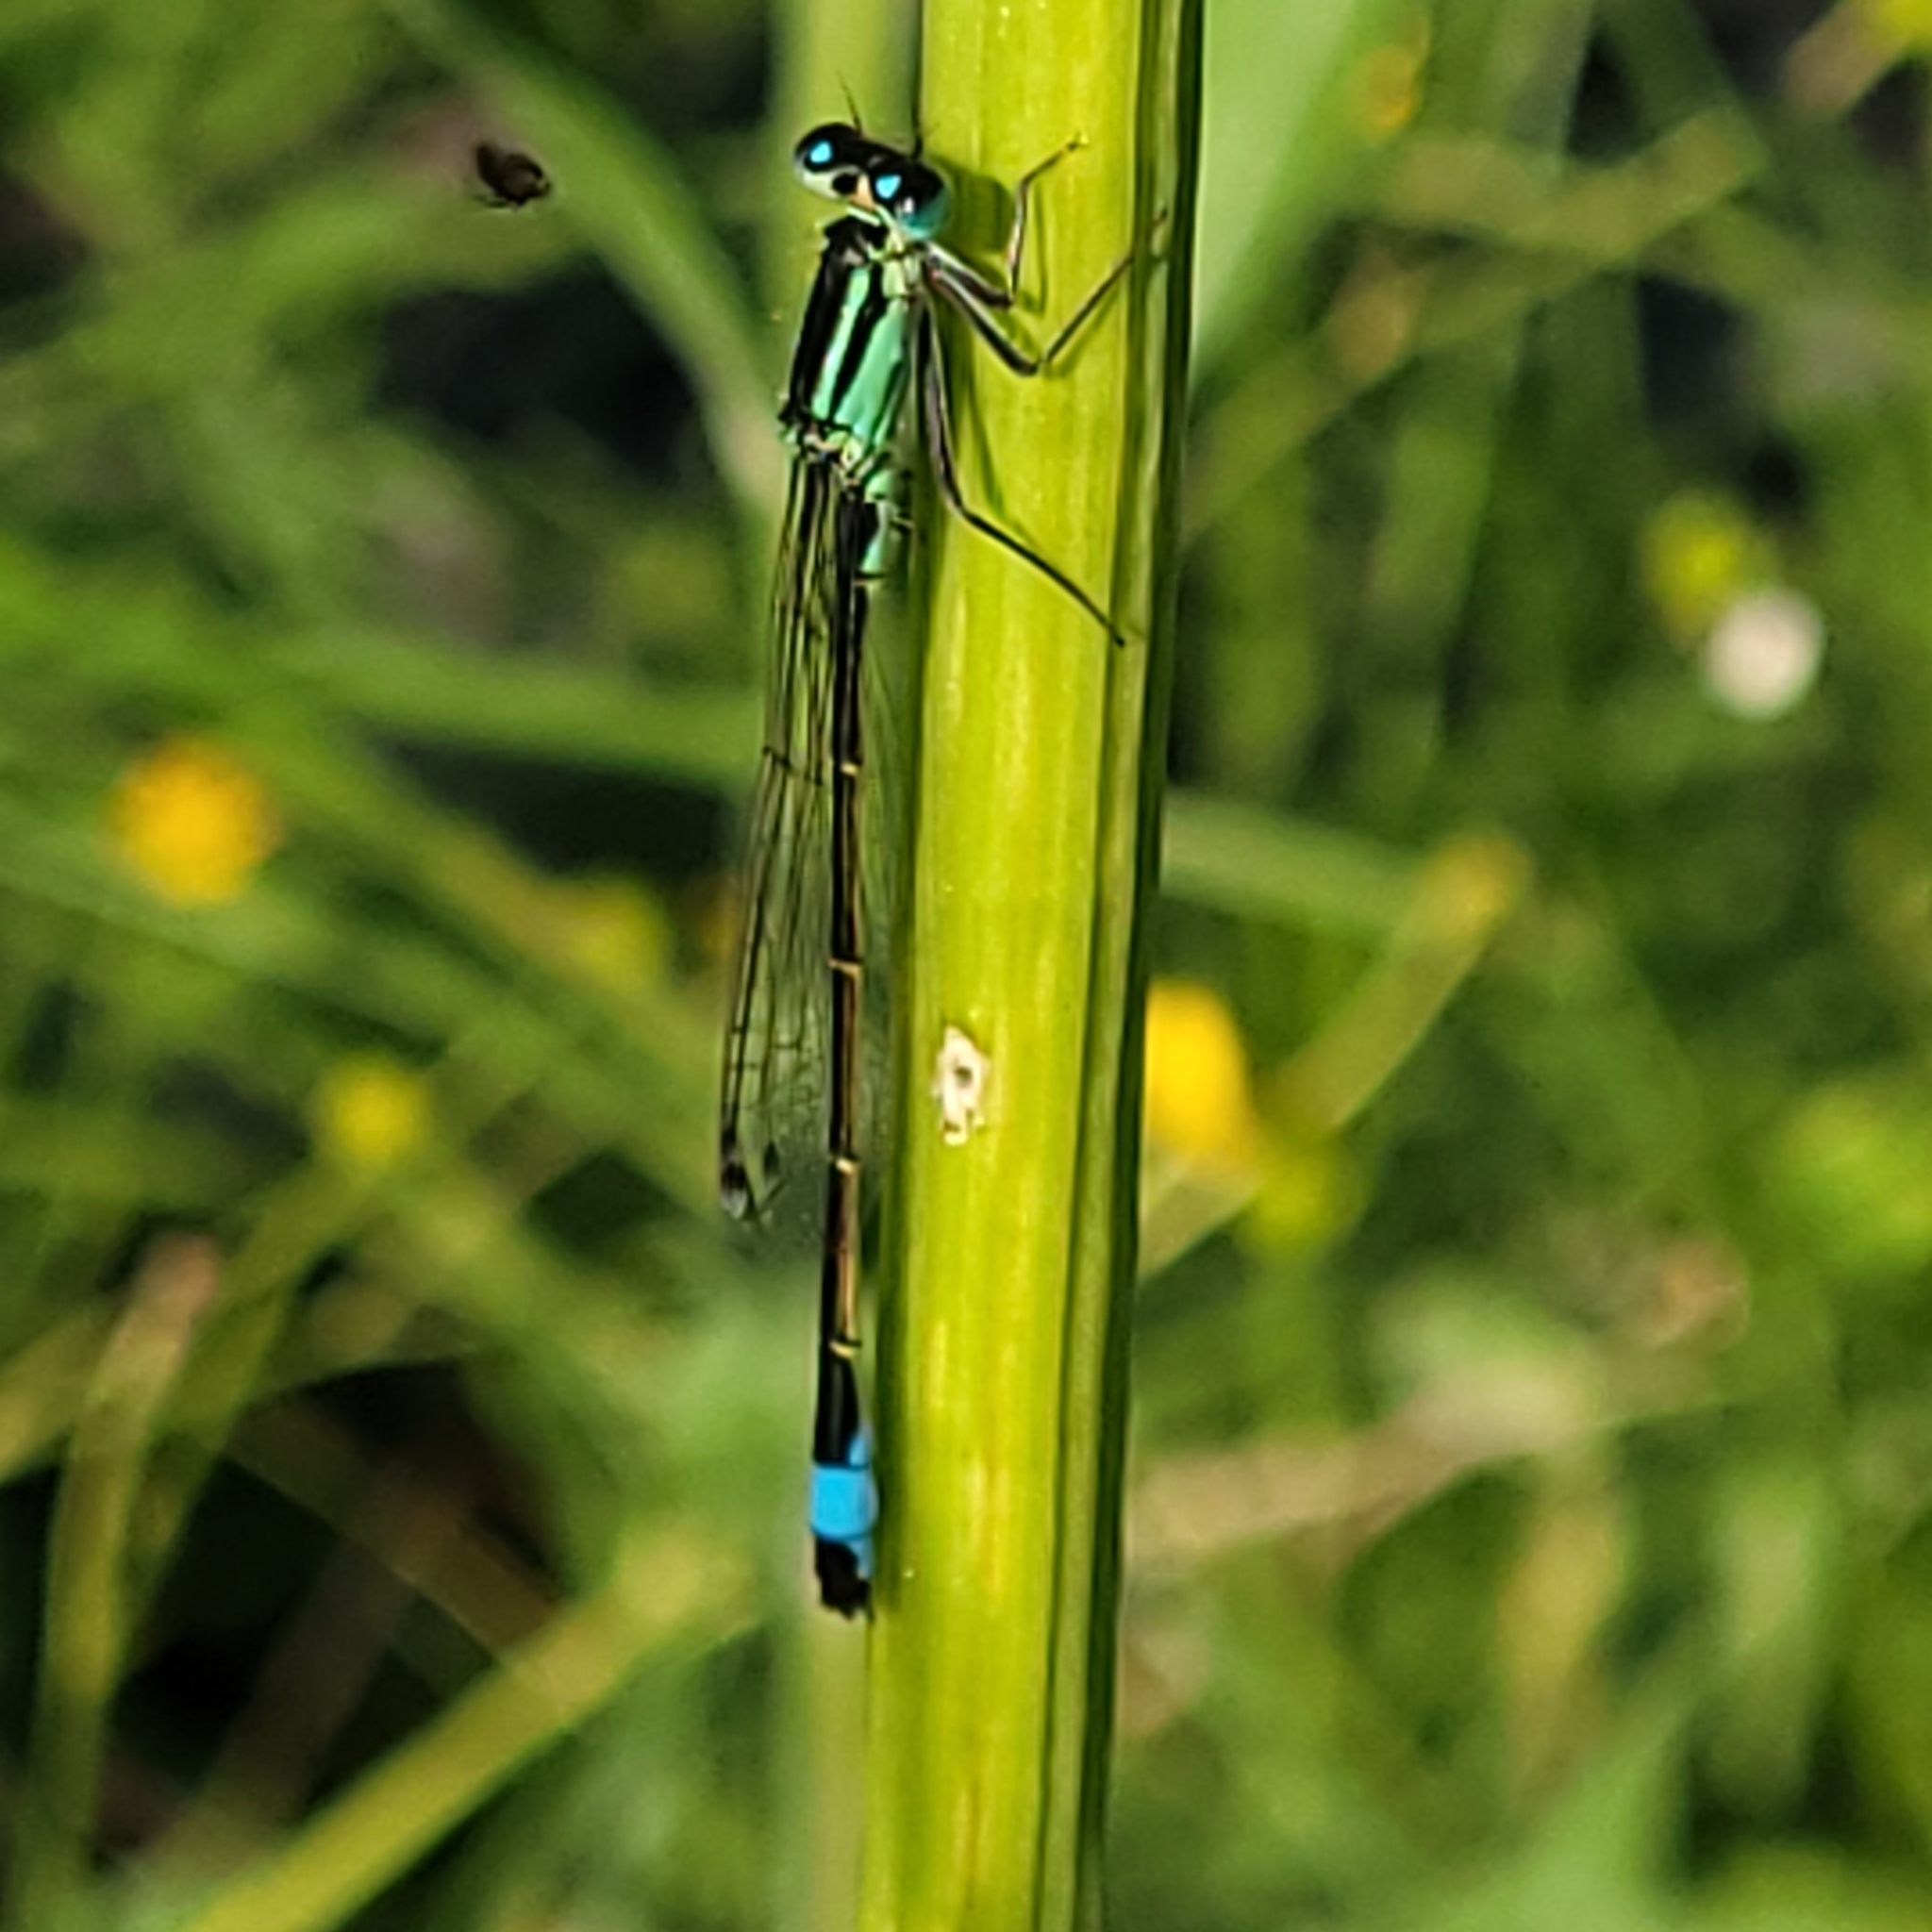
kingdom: Animalia
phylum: Arthropoda
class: Insecta
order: Odonata
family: Coenagrionidae
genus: Ischnura
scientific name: Ischnura elegans
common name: Blue-tailed damselfly
